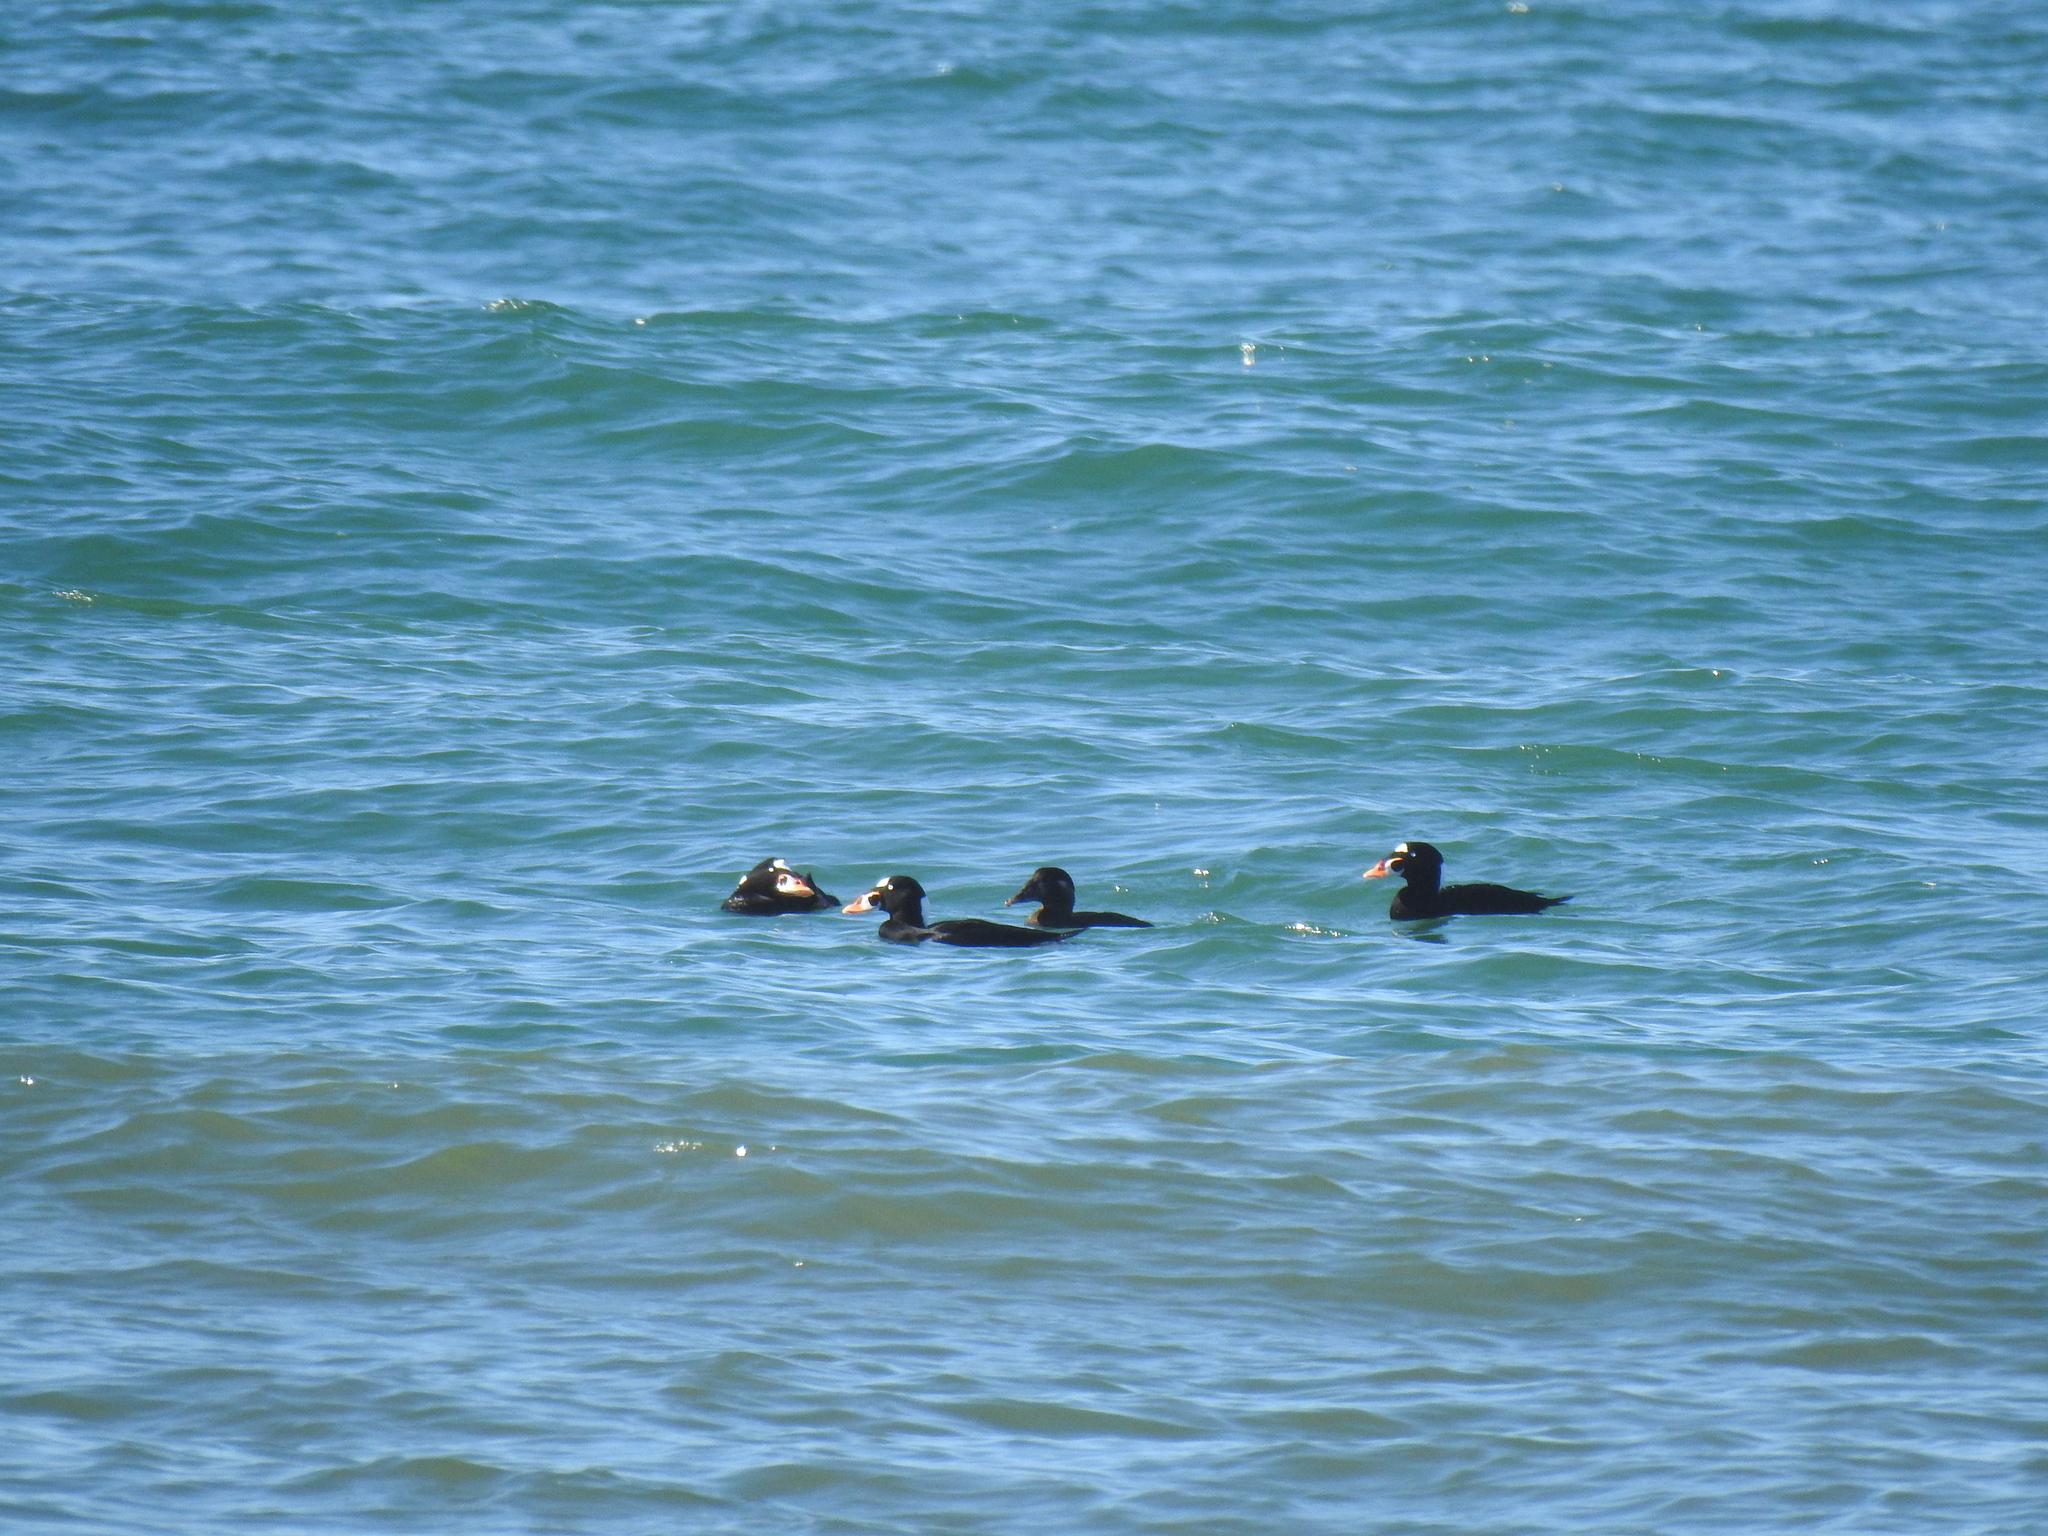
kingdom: Animalia
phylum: Chordata
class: Aves
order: Anseriformes
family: Anatidae
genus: Melanitta
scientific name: Melanitta perspicillata
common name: Surf scoter
